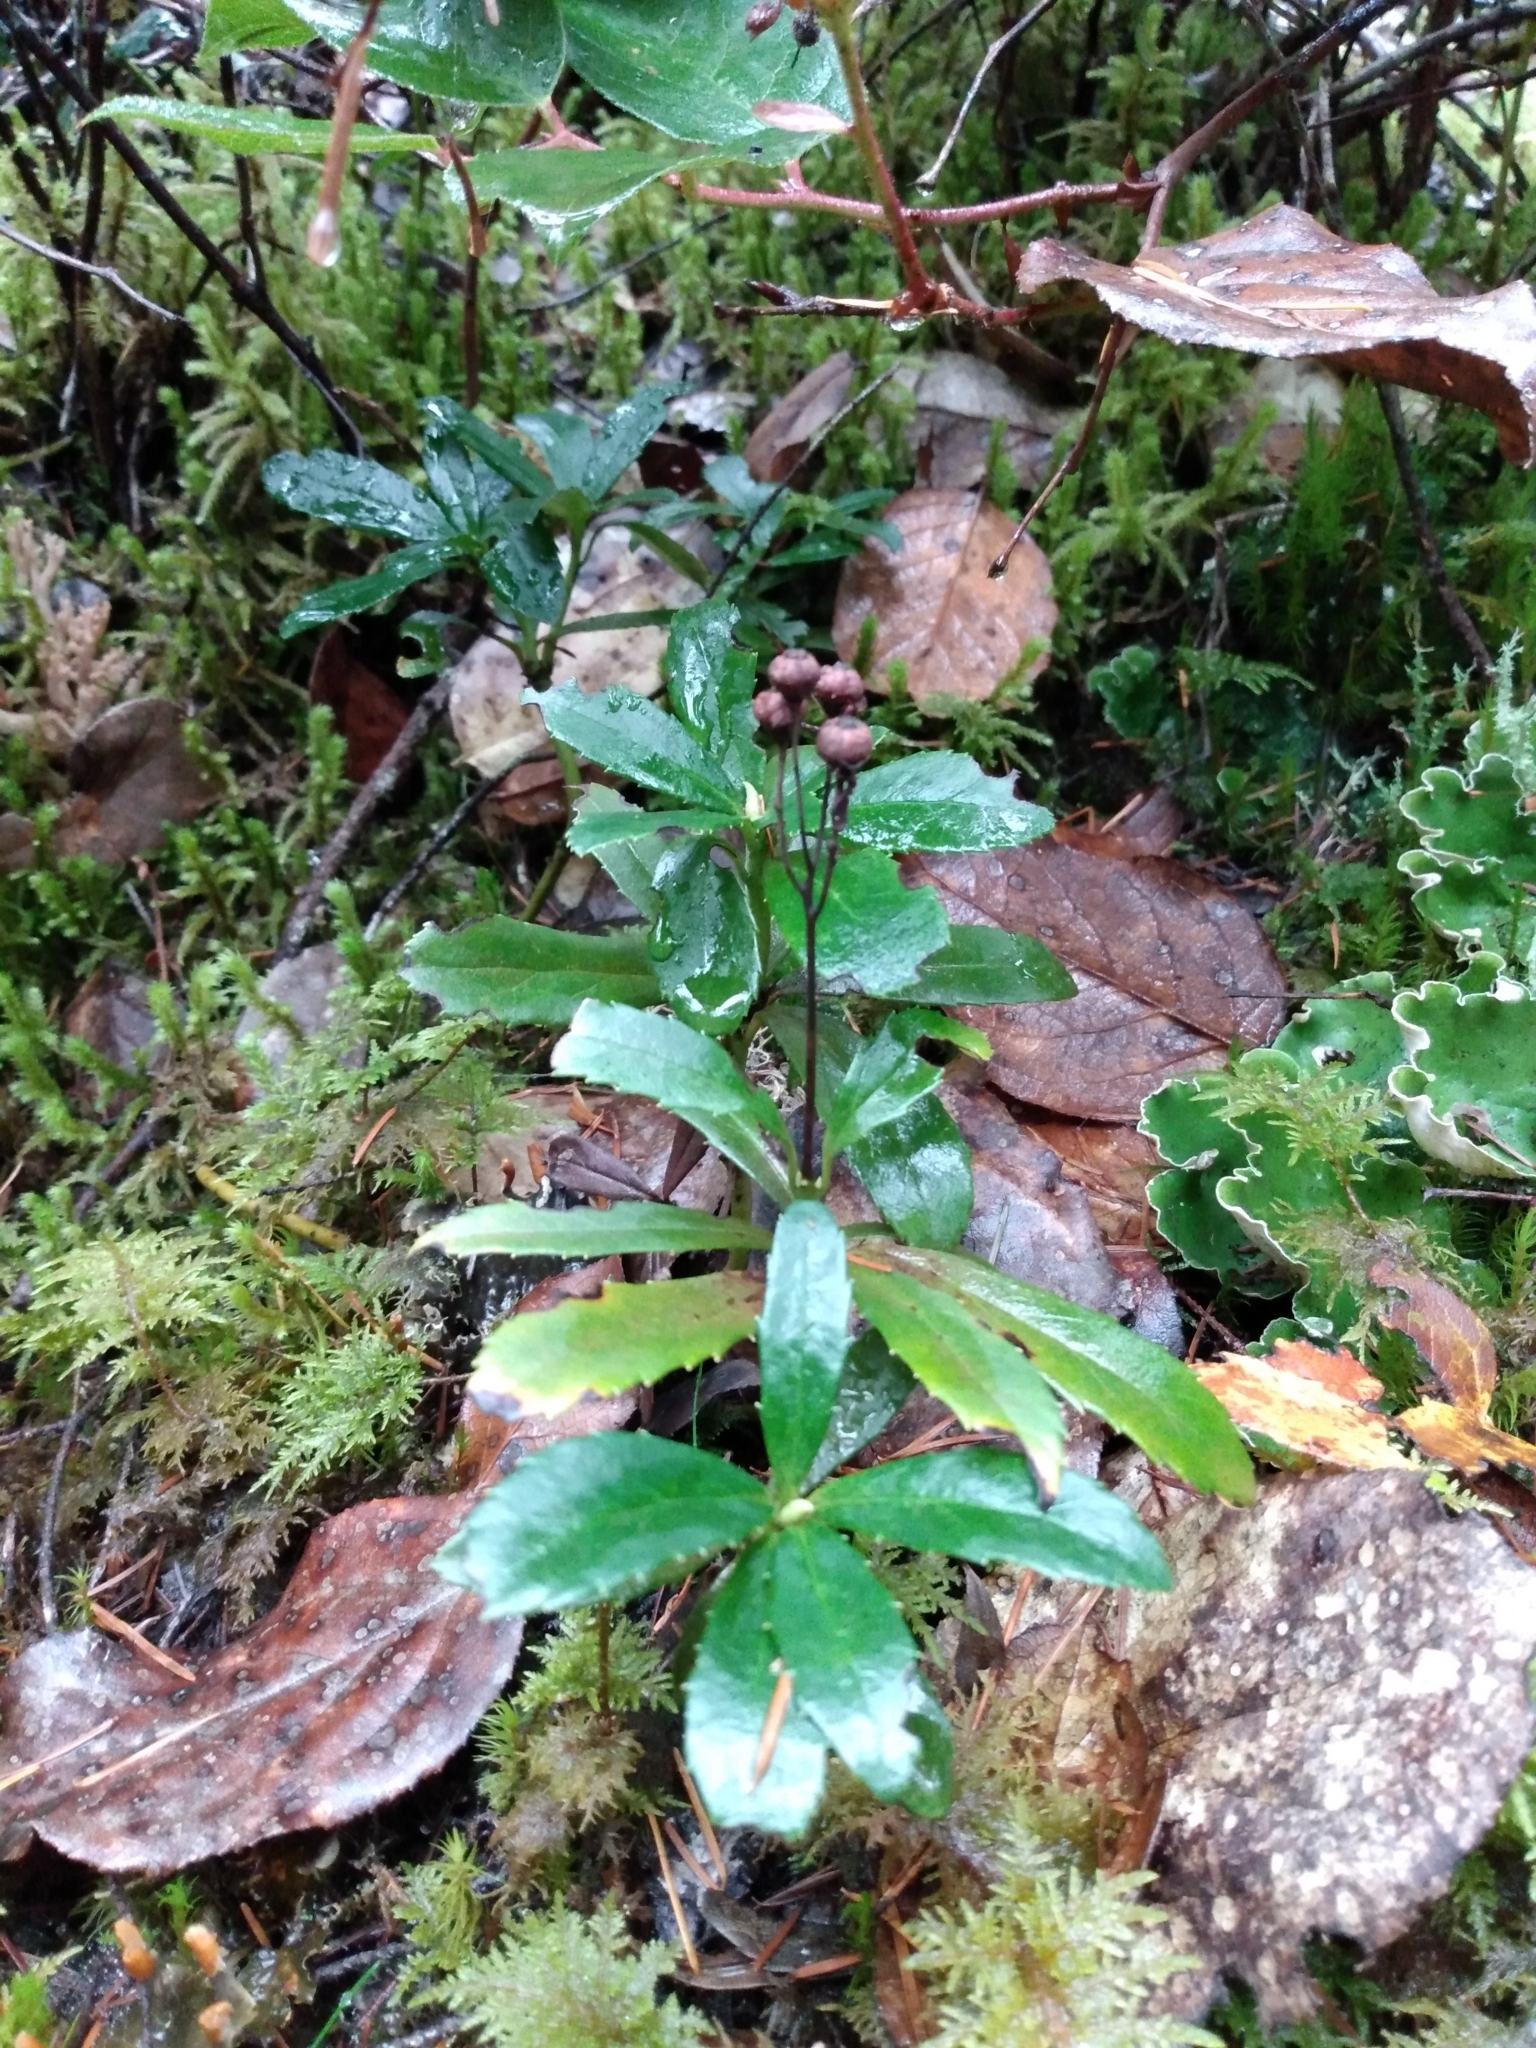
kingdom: Plantae
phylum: Tracheophyta
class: Magnoliopsida
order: Ericales
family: Ericaceae
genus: Chimaphila
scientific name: Chimaphila umbellata
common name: Pipsissewa
